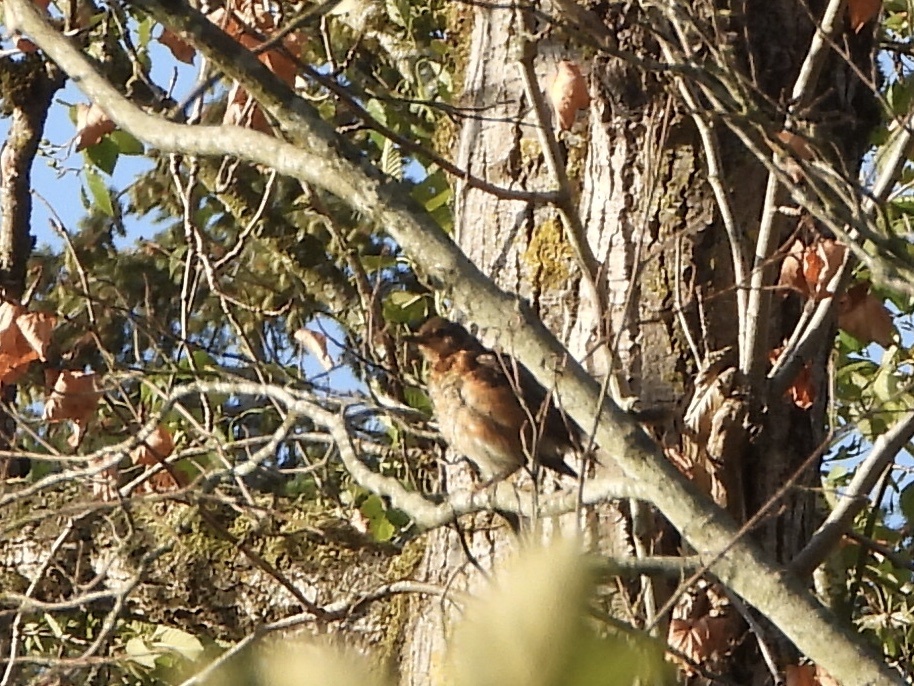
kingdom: Animalia
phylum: Chordata
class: Aves
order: Passeriformes
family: Turdidae
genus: Turdus
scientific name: Turdus migratorius
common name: American robin
